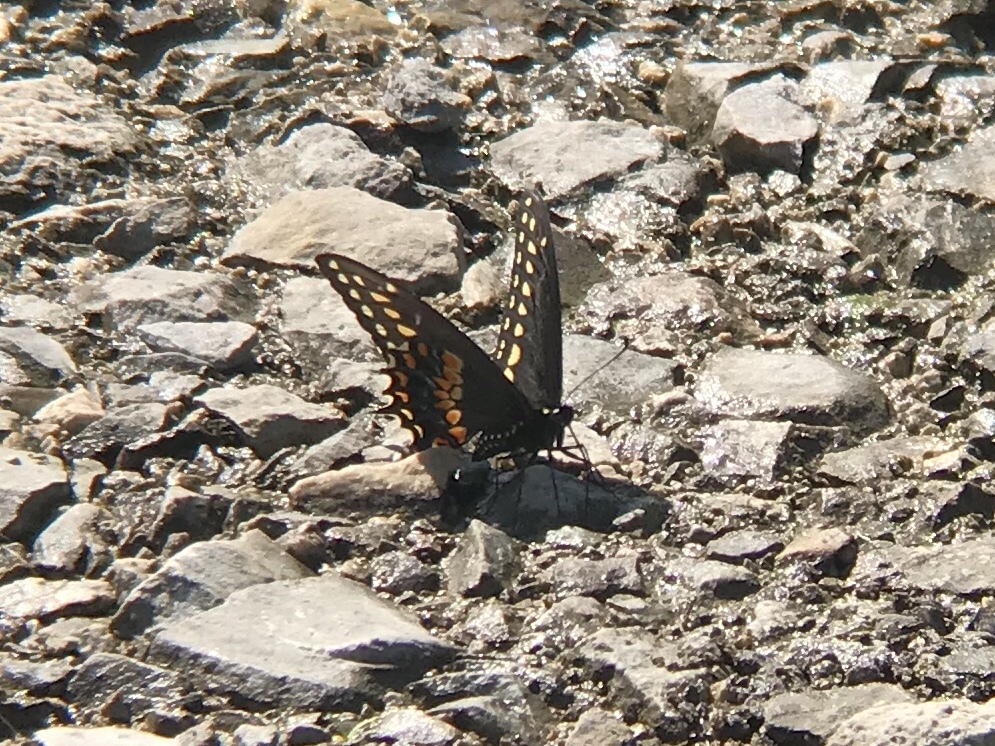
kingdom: Animalia
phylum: Arthropoda
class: Insecta
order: Lepidoptera
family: Papilionidae
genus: Papilio
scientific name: Papilio polyxenes
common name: Black swallowtail
